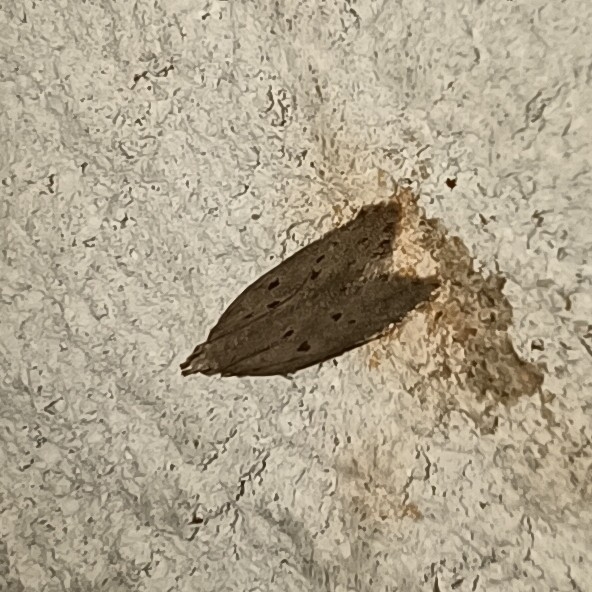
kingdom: Animalia
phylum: Arthropoda
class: Insecta
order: Lepidoptera
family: Gelechiidae
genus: Athrips
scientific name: Athrips mouffetella
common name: Dotted grey groundling
